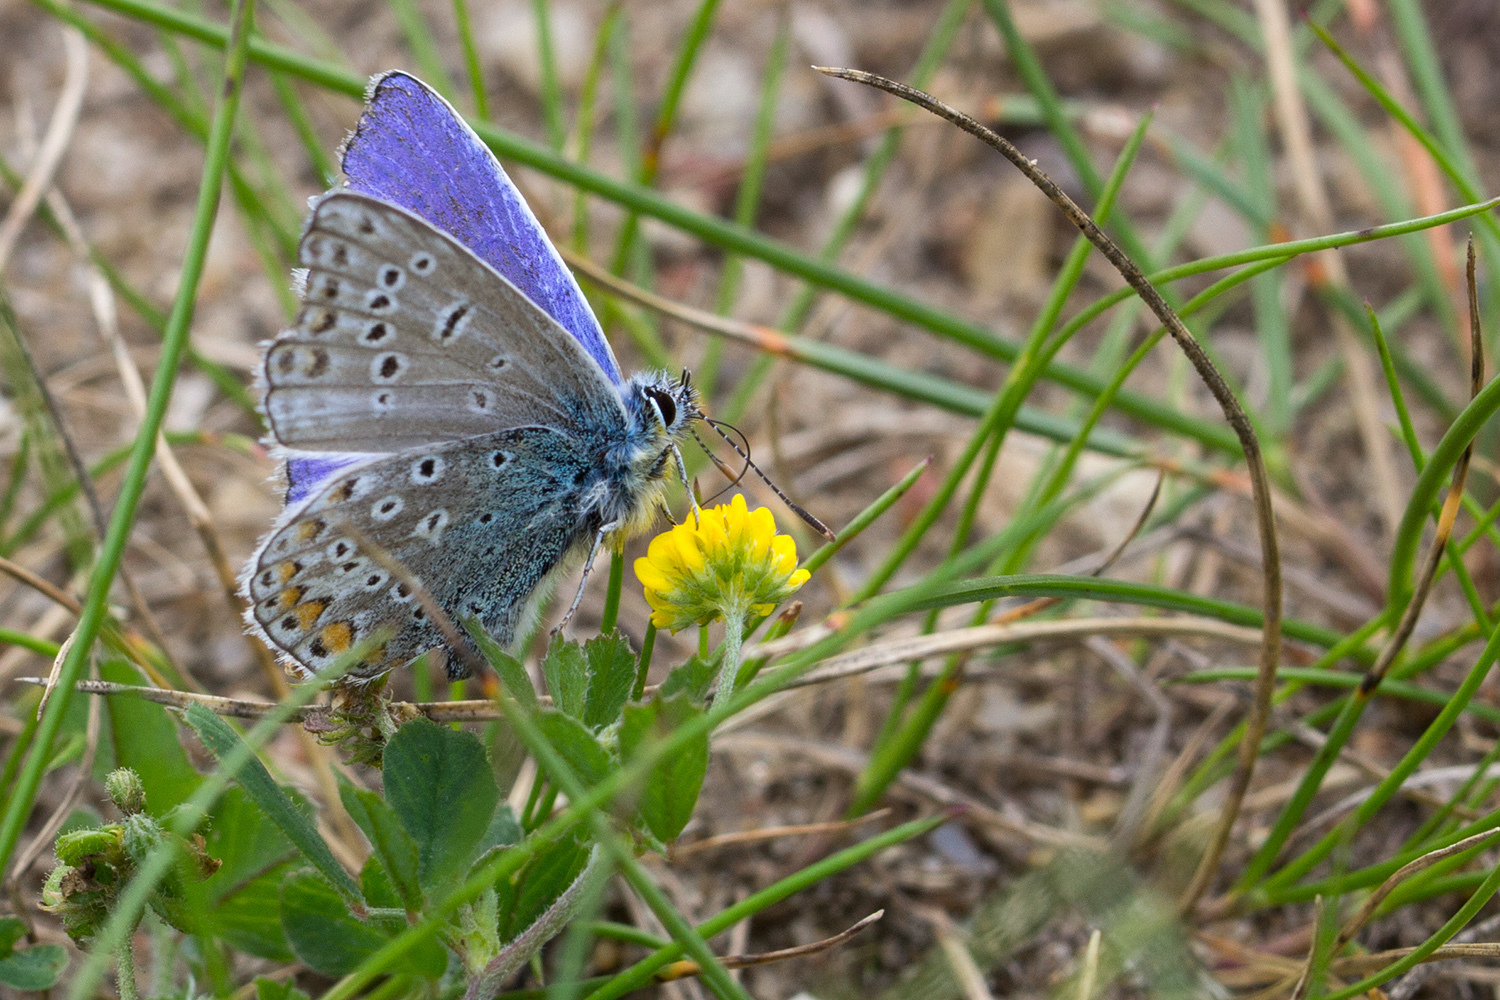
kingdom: Animalia
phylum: Arthropoda
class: Insecta
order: Lepidoptera
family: Lycaenidae
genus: Polyommatus
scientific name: Polyommatus icarus
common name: Common blue
